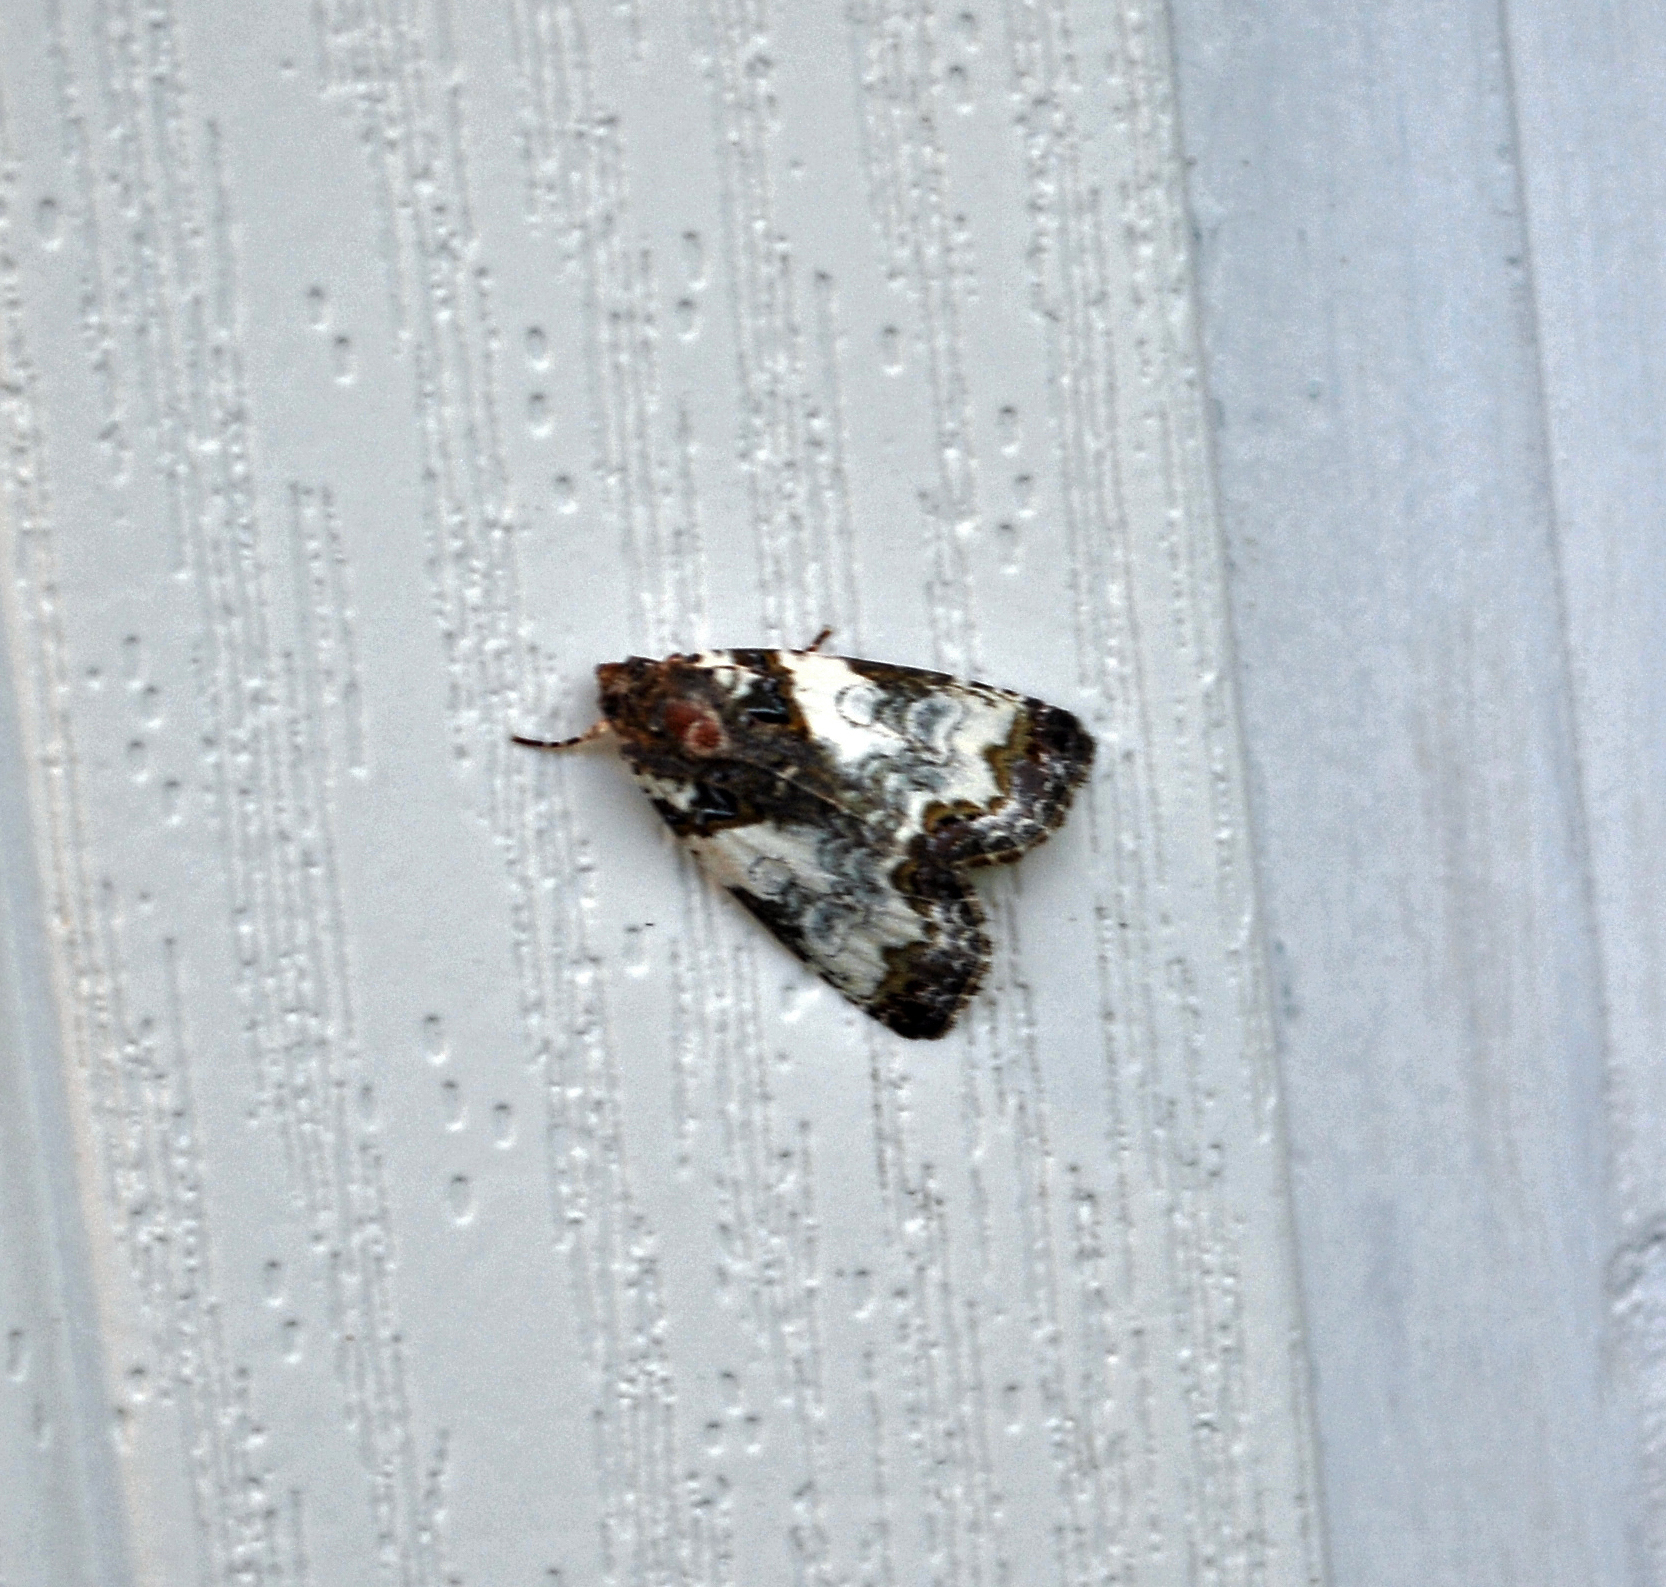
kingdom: Animalia
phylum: Arthropoda
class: Insecta
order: Lepidoptera
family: Noctuidae
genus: Cerma
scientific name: Cerma cerintha
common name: Tufted bird-dropping moth
